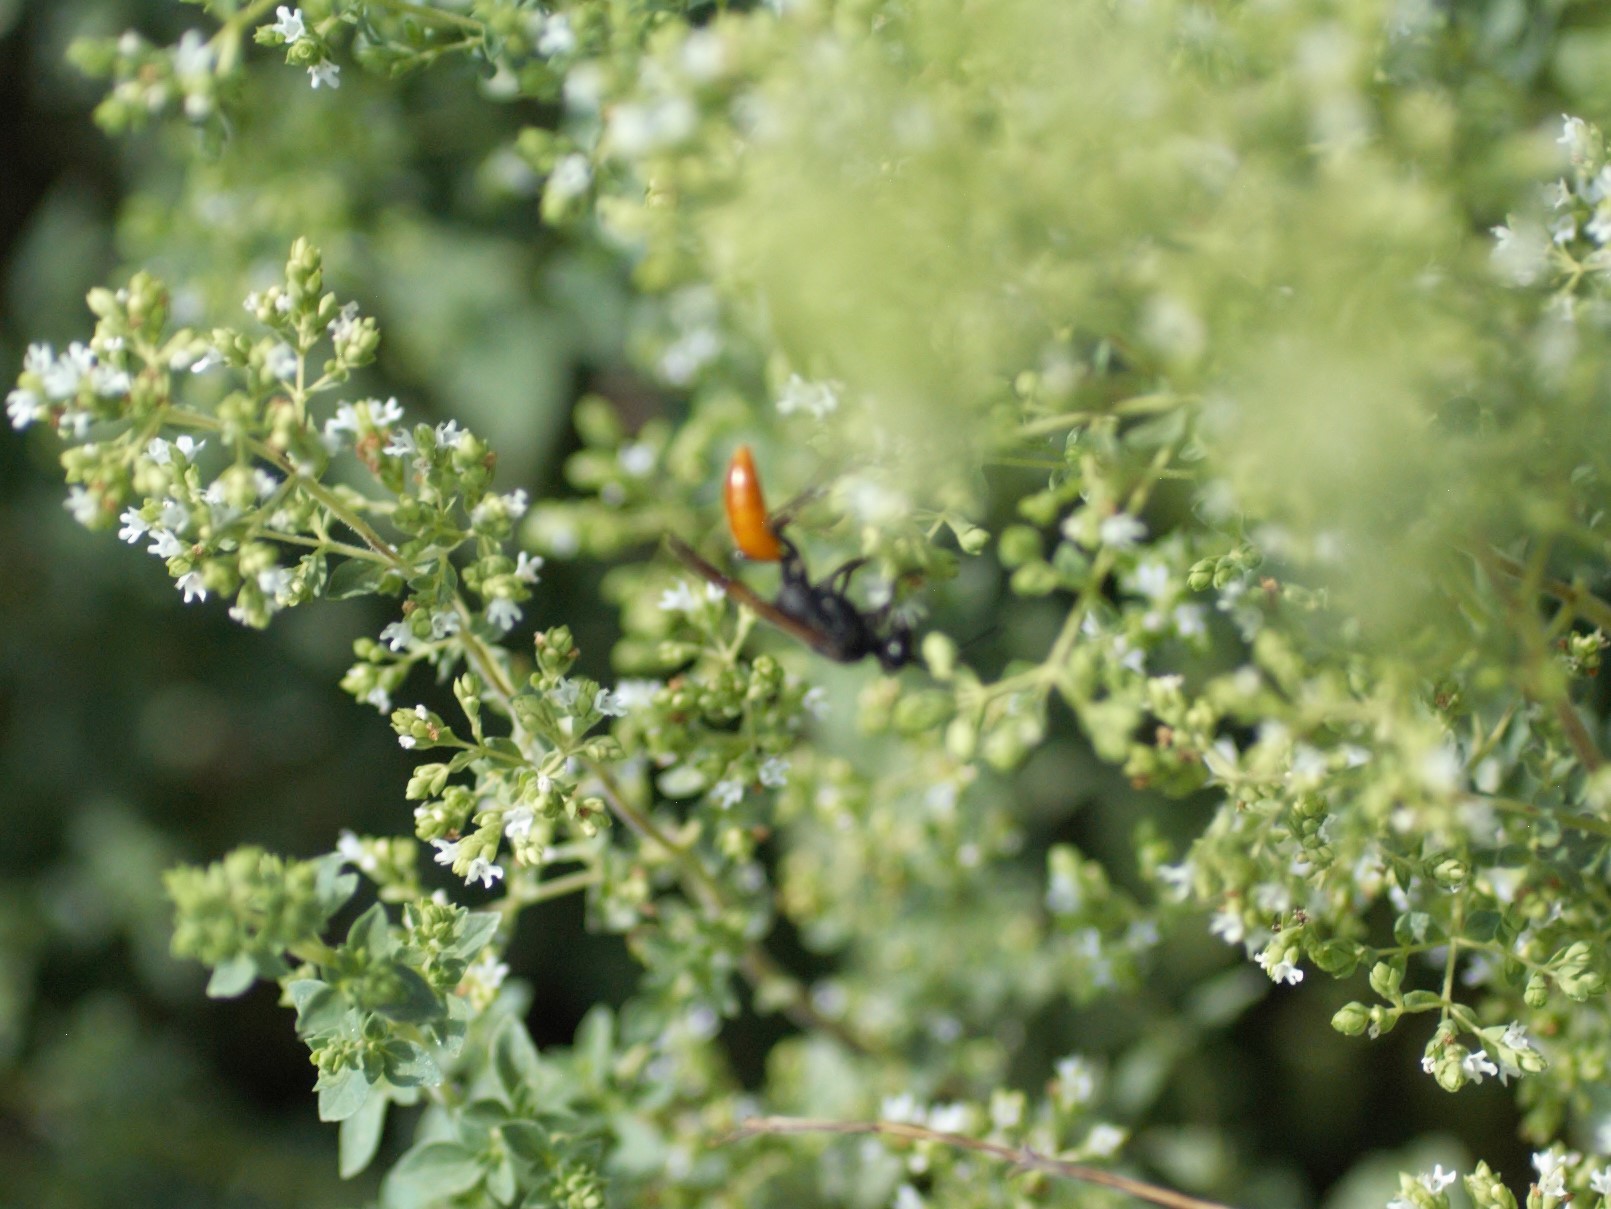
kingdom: Animalia
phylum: Arthropoda
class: Insecta
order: Hymenoptera
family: Sphecidae
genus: Sphex
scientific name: Sphex lucae
